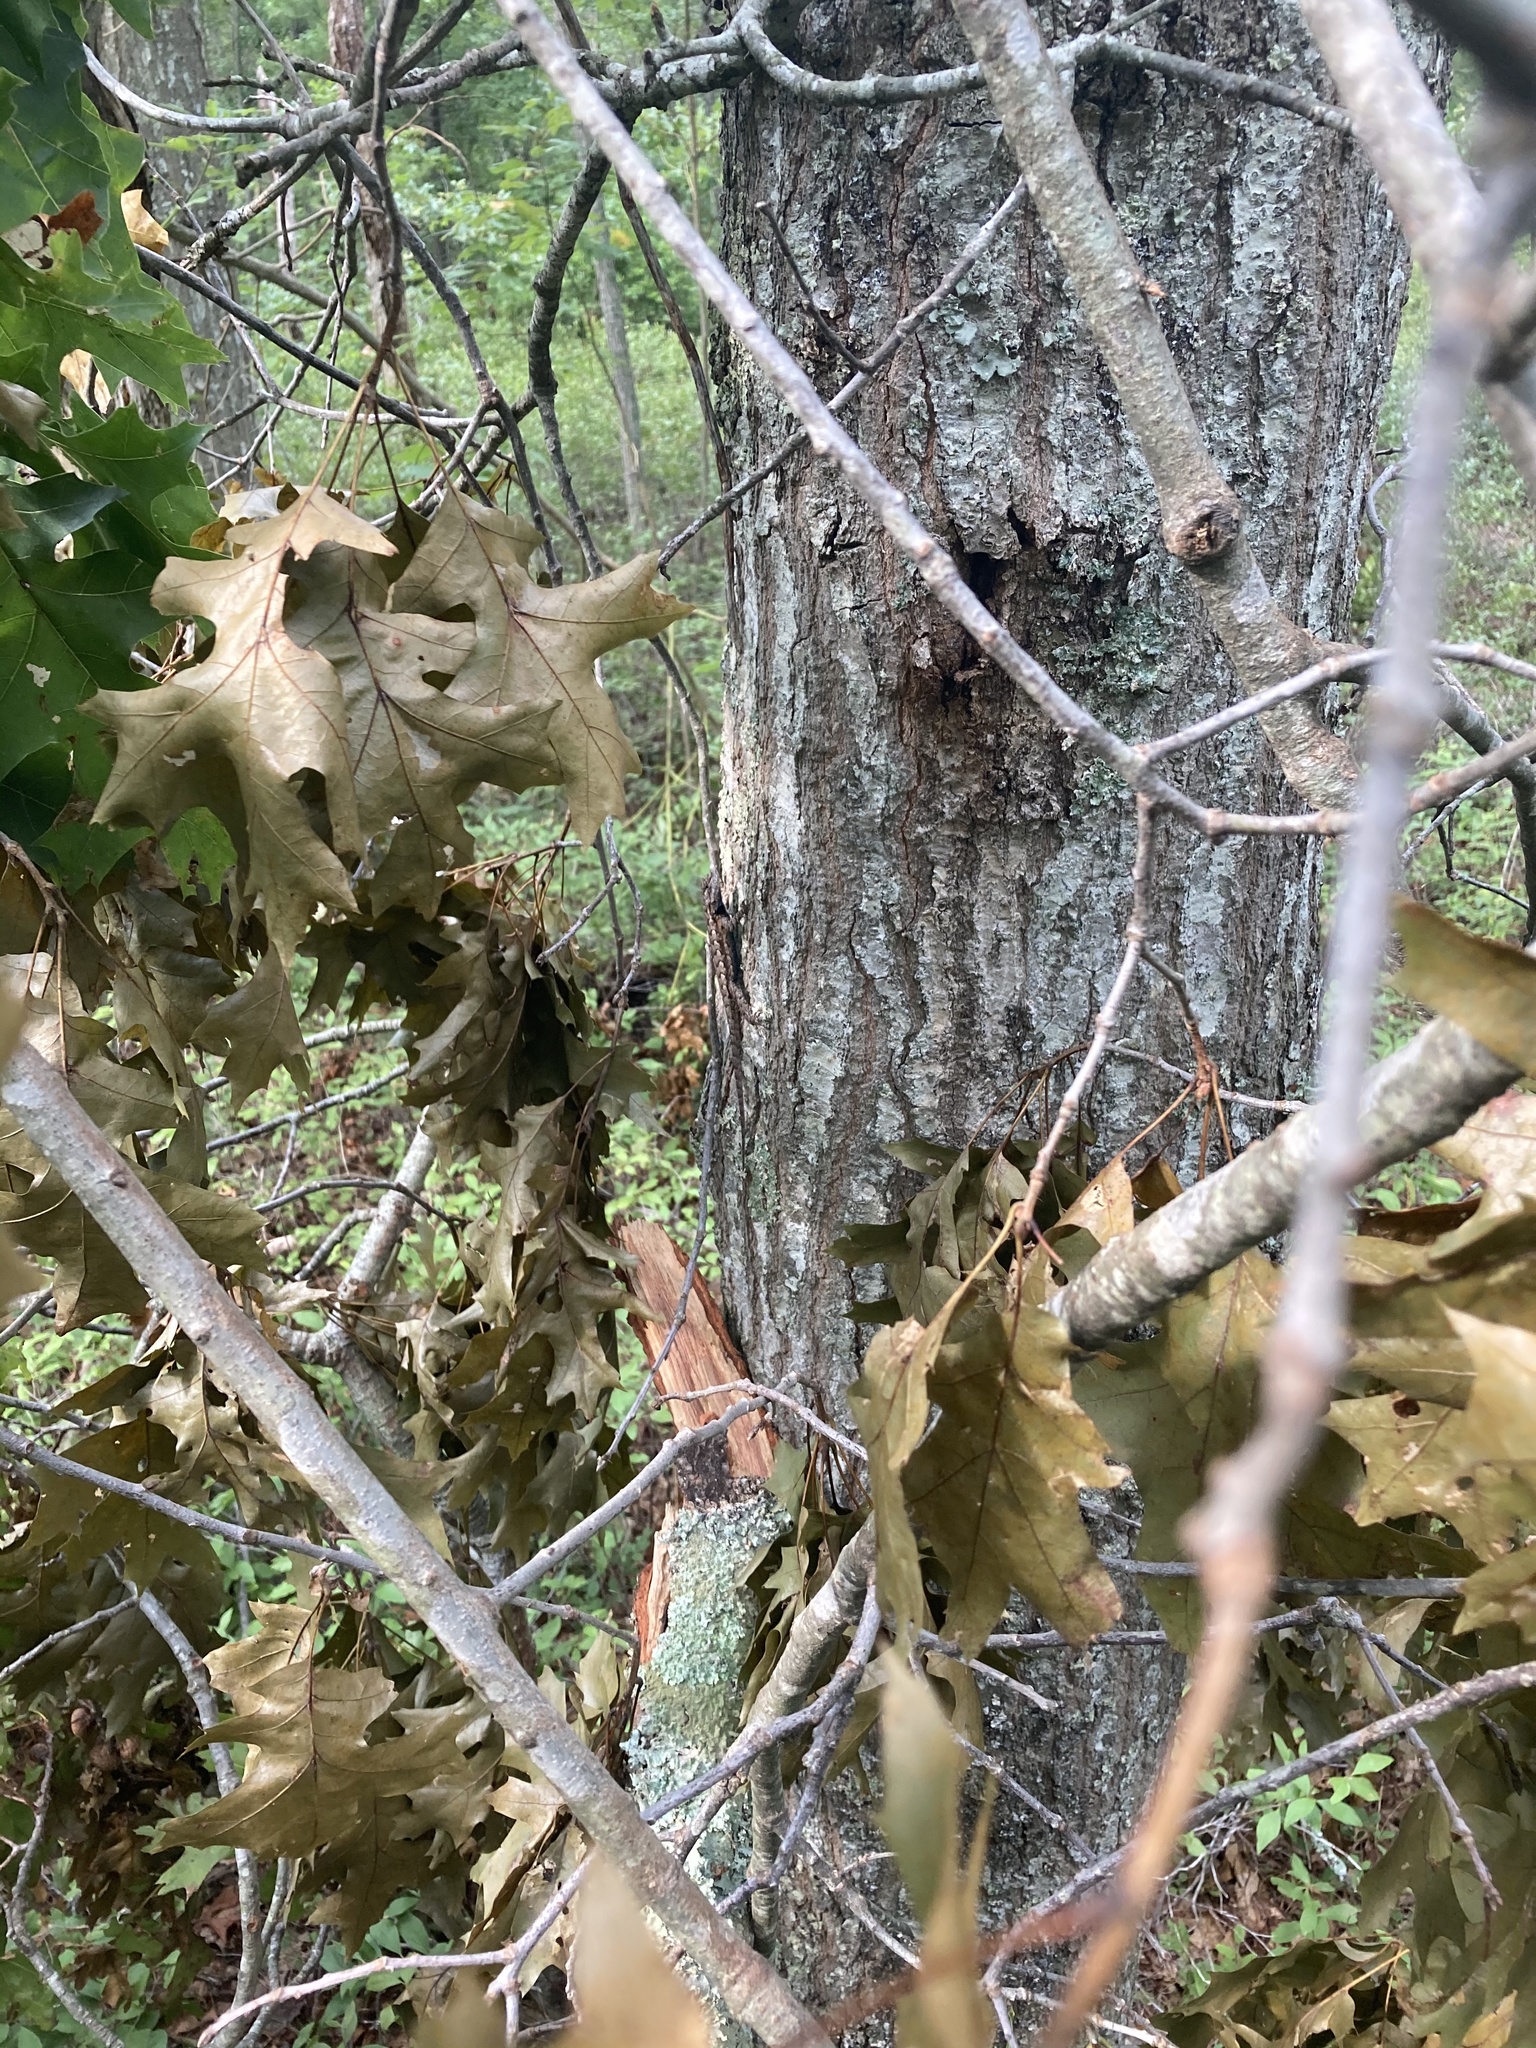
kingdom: Animalia
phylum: Chordata
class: Squamata
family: Phrynosomatidae
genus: Sceloporus
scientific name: Sceloporus undulatus
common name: Eastern fence lizard
